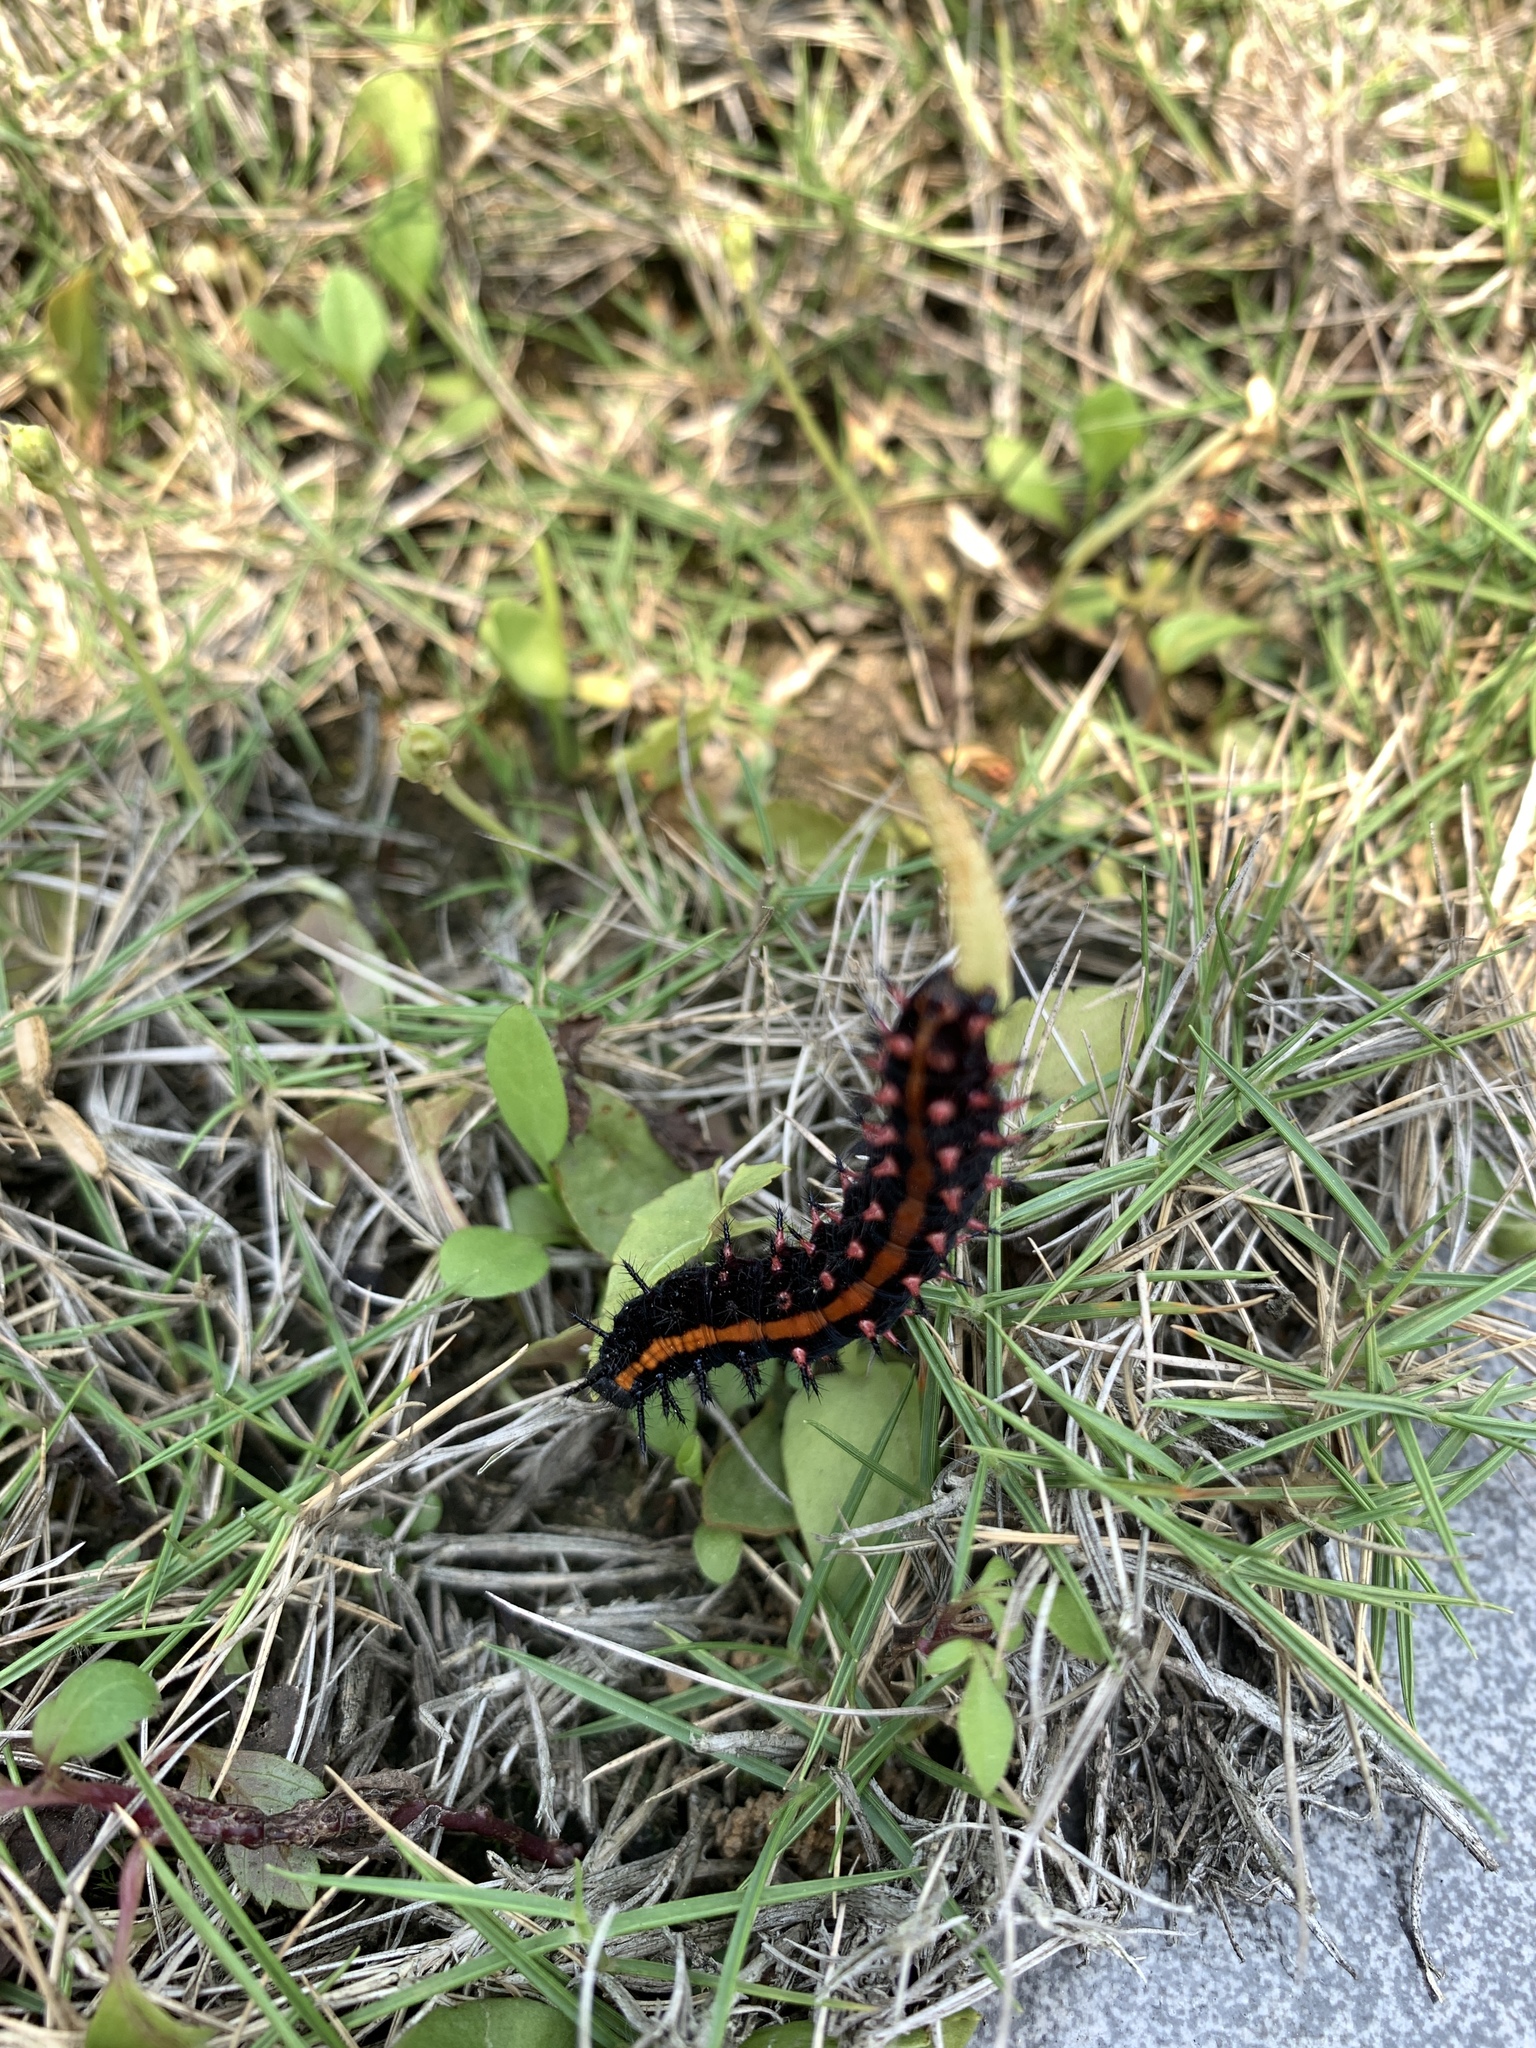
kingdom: Animalia
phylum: Arthropoda
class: Insecta
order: Lepidoptera
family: Nymphalidae
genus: Argynnis
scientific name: Argynnis hyperbius
